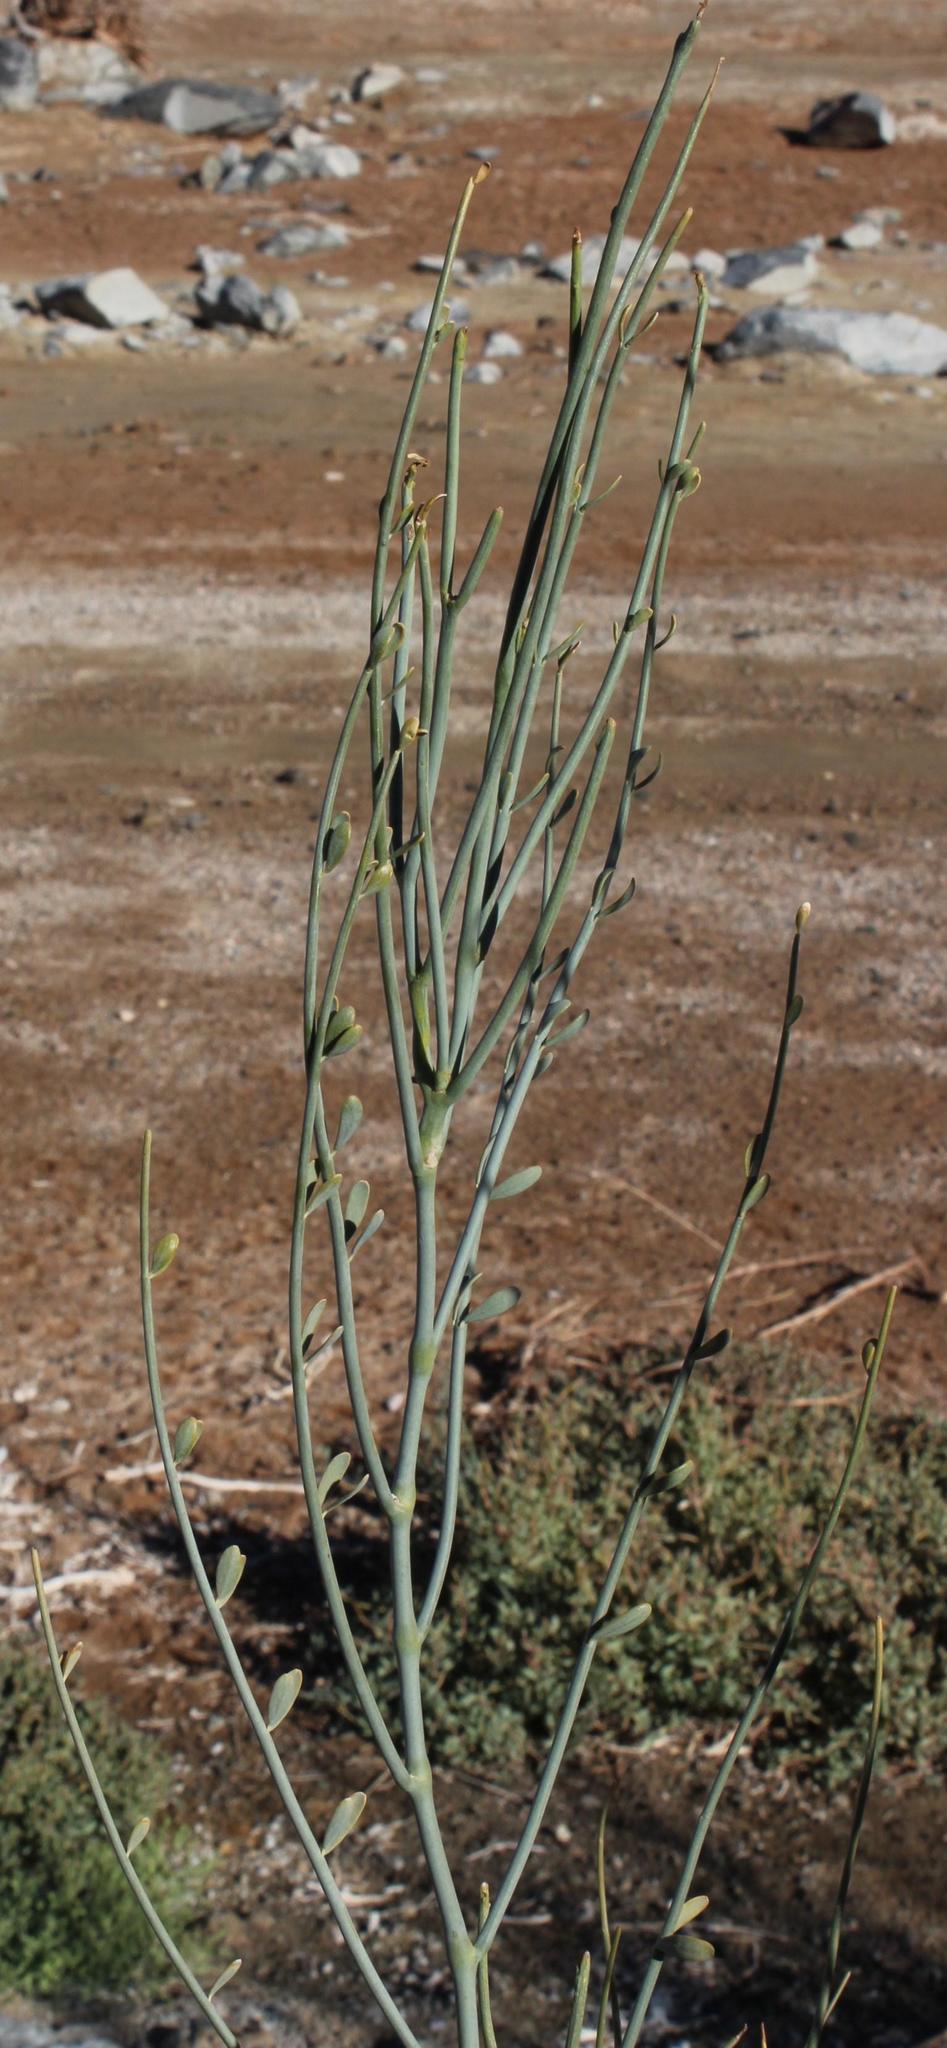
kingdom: Plantae
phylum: Tracheophyta
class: Magnoliopsida
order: Zygophyllales
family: Zygophyllaceae
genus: Sisyndite
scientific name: Sisyndite spartea
